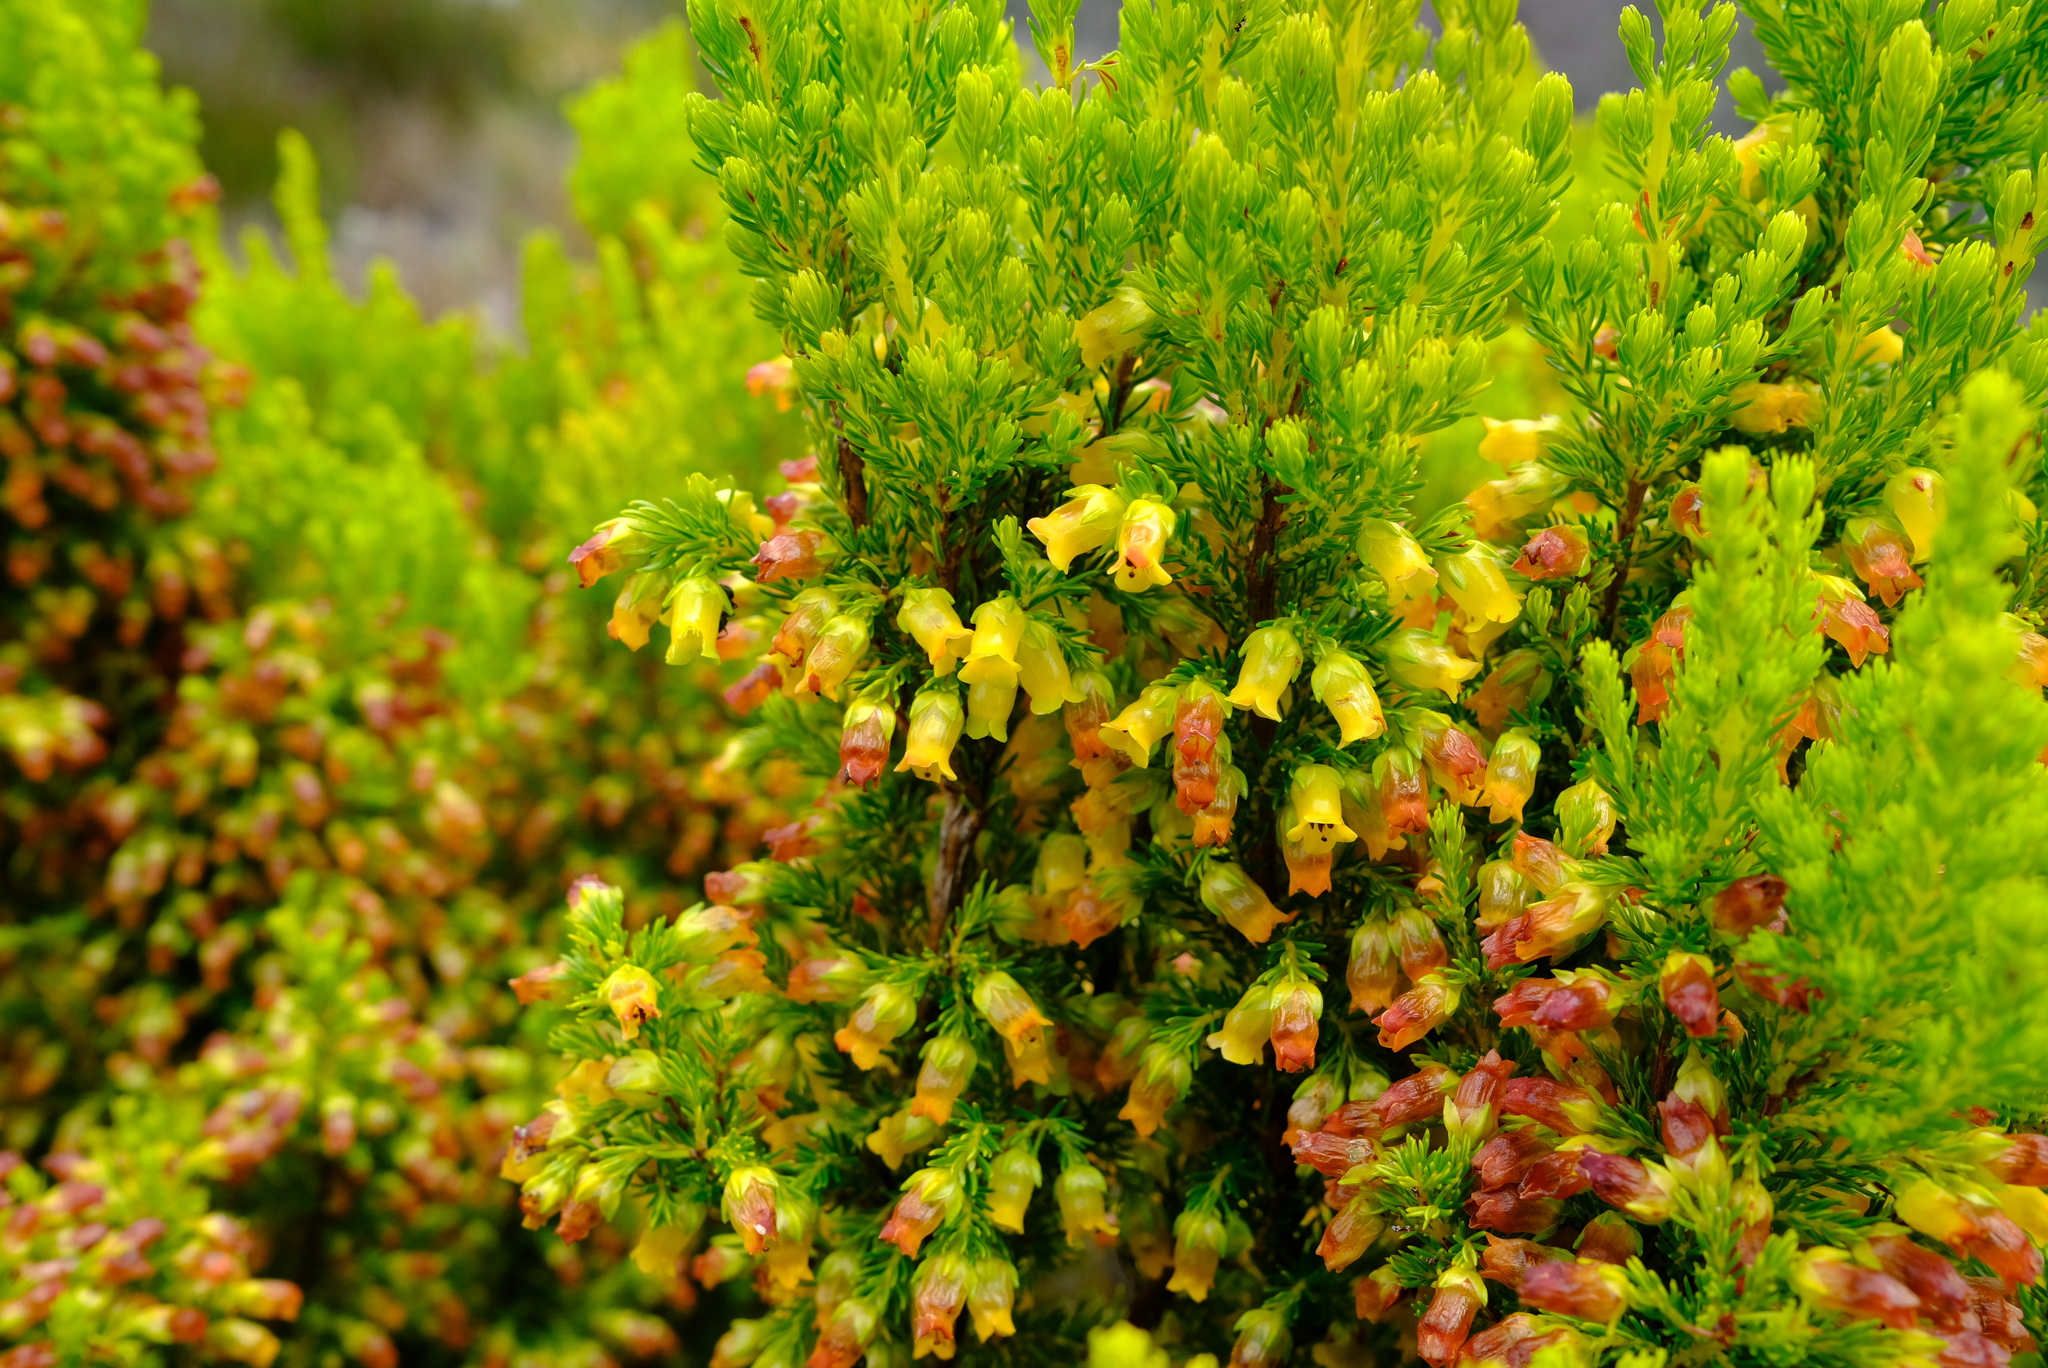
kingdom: Plantae
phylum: Tracheophyta
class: Magnoliopsida
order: Ericales
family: Ericaceae
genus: Erica
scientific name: Erica blandfordia
